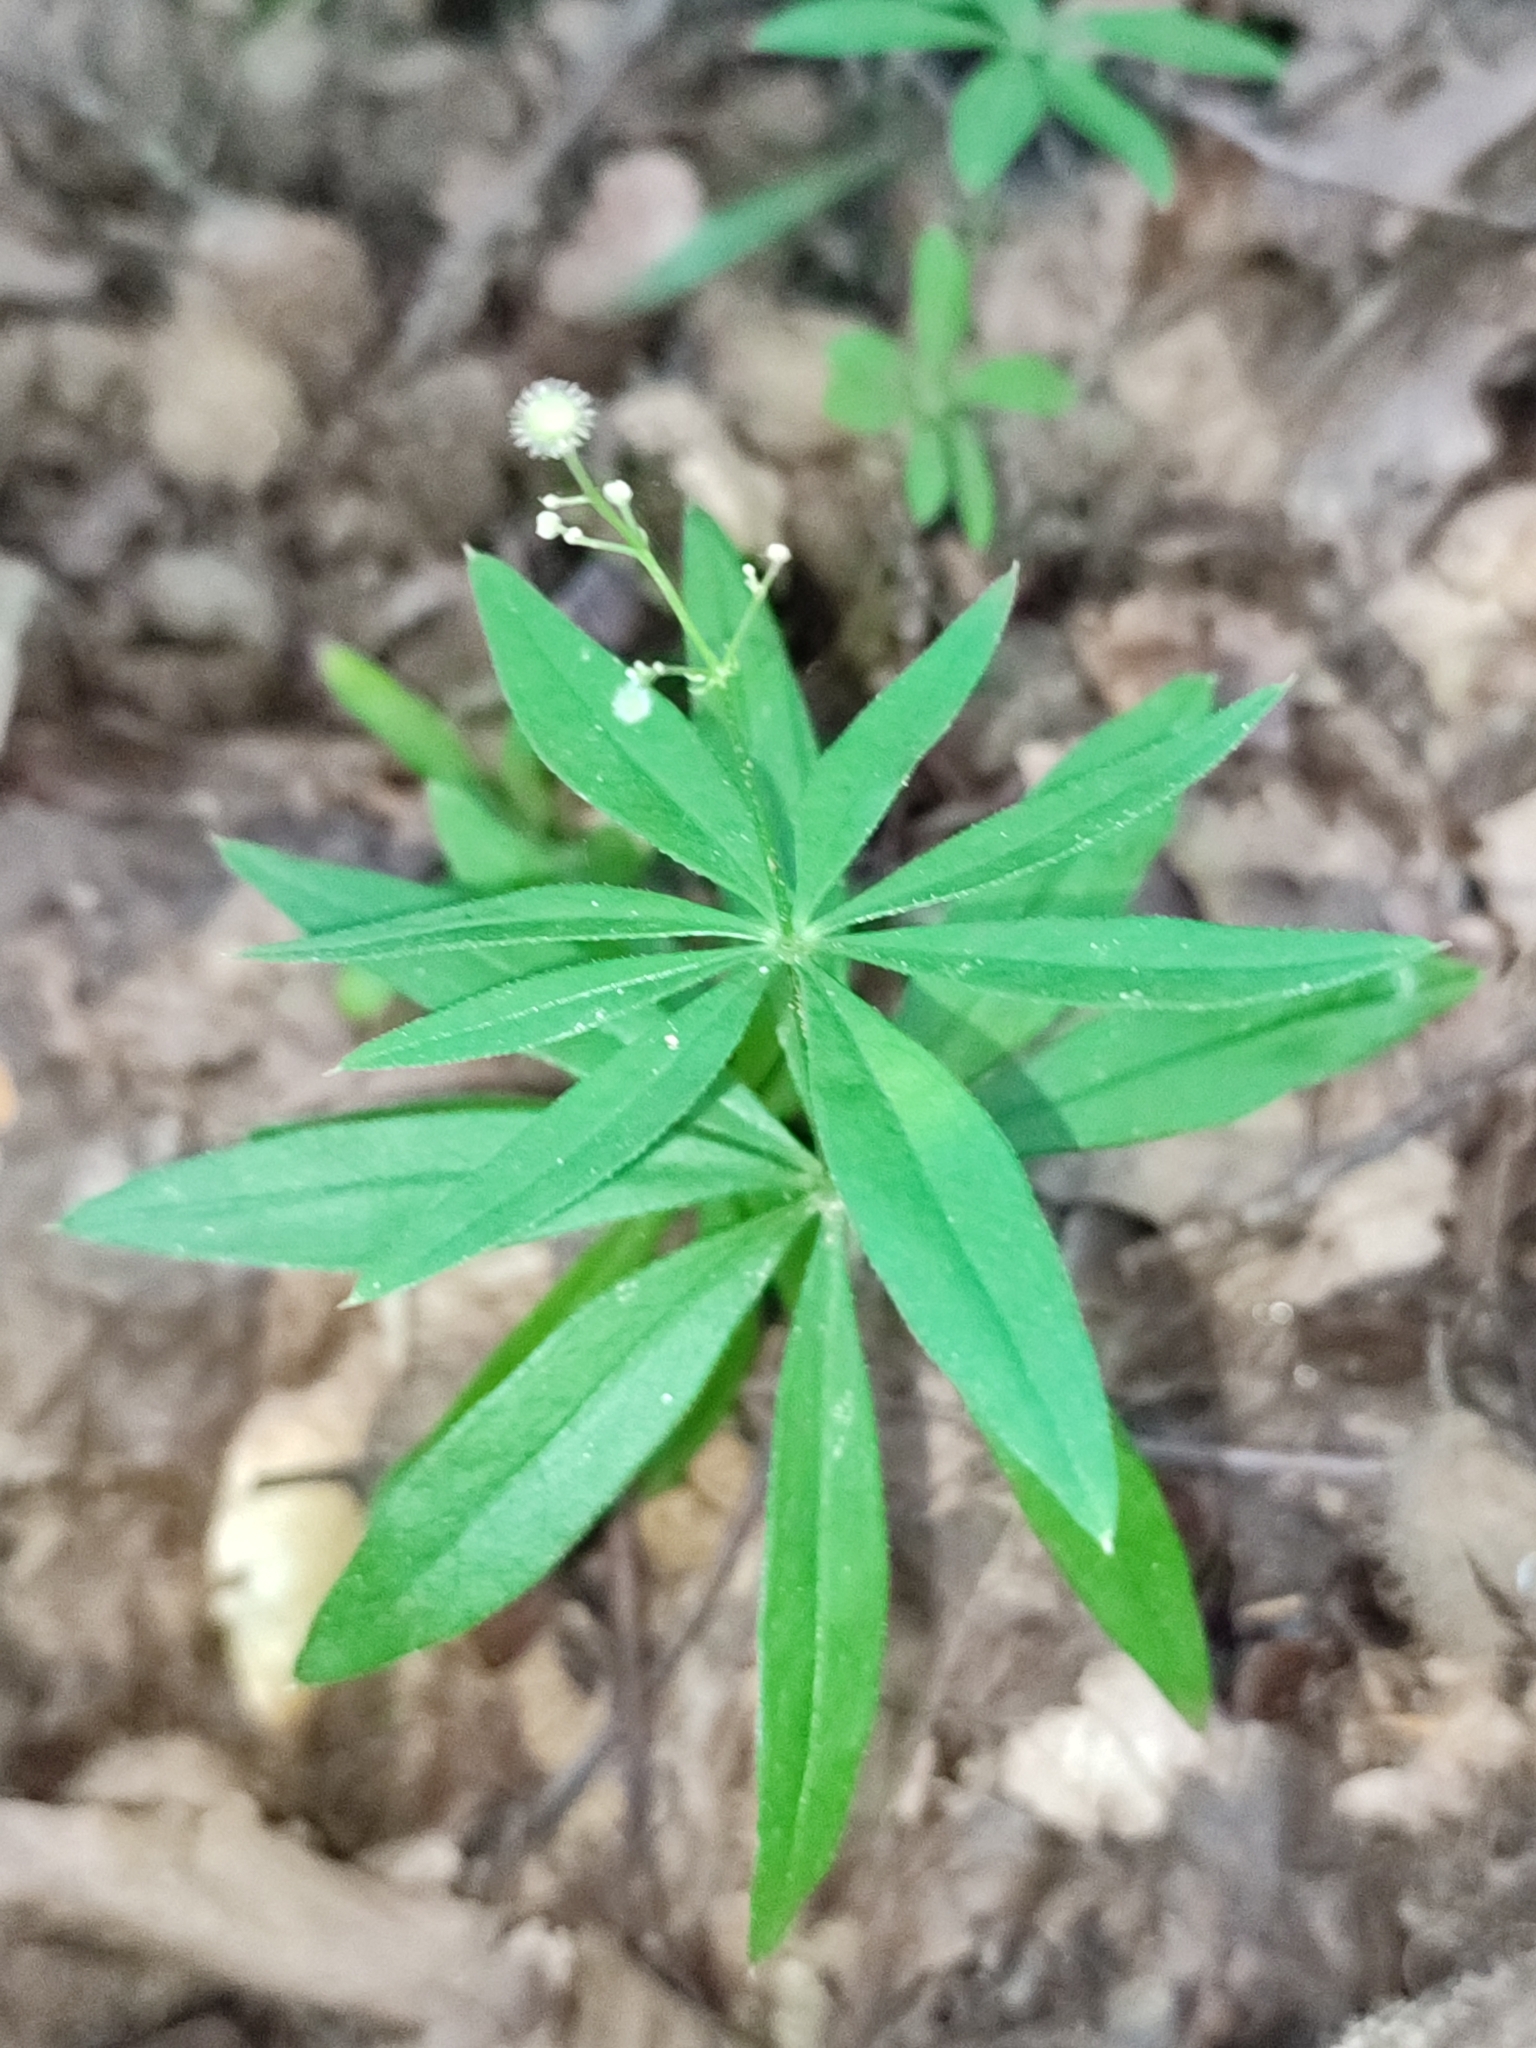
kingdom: Plantae
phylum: Tracheophyta
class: Magnoliopsida
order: Gentianales
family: Rubiaceae
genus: Galium
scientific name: Galium odoratum
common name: Sweet woodruff
